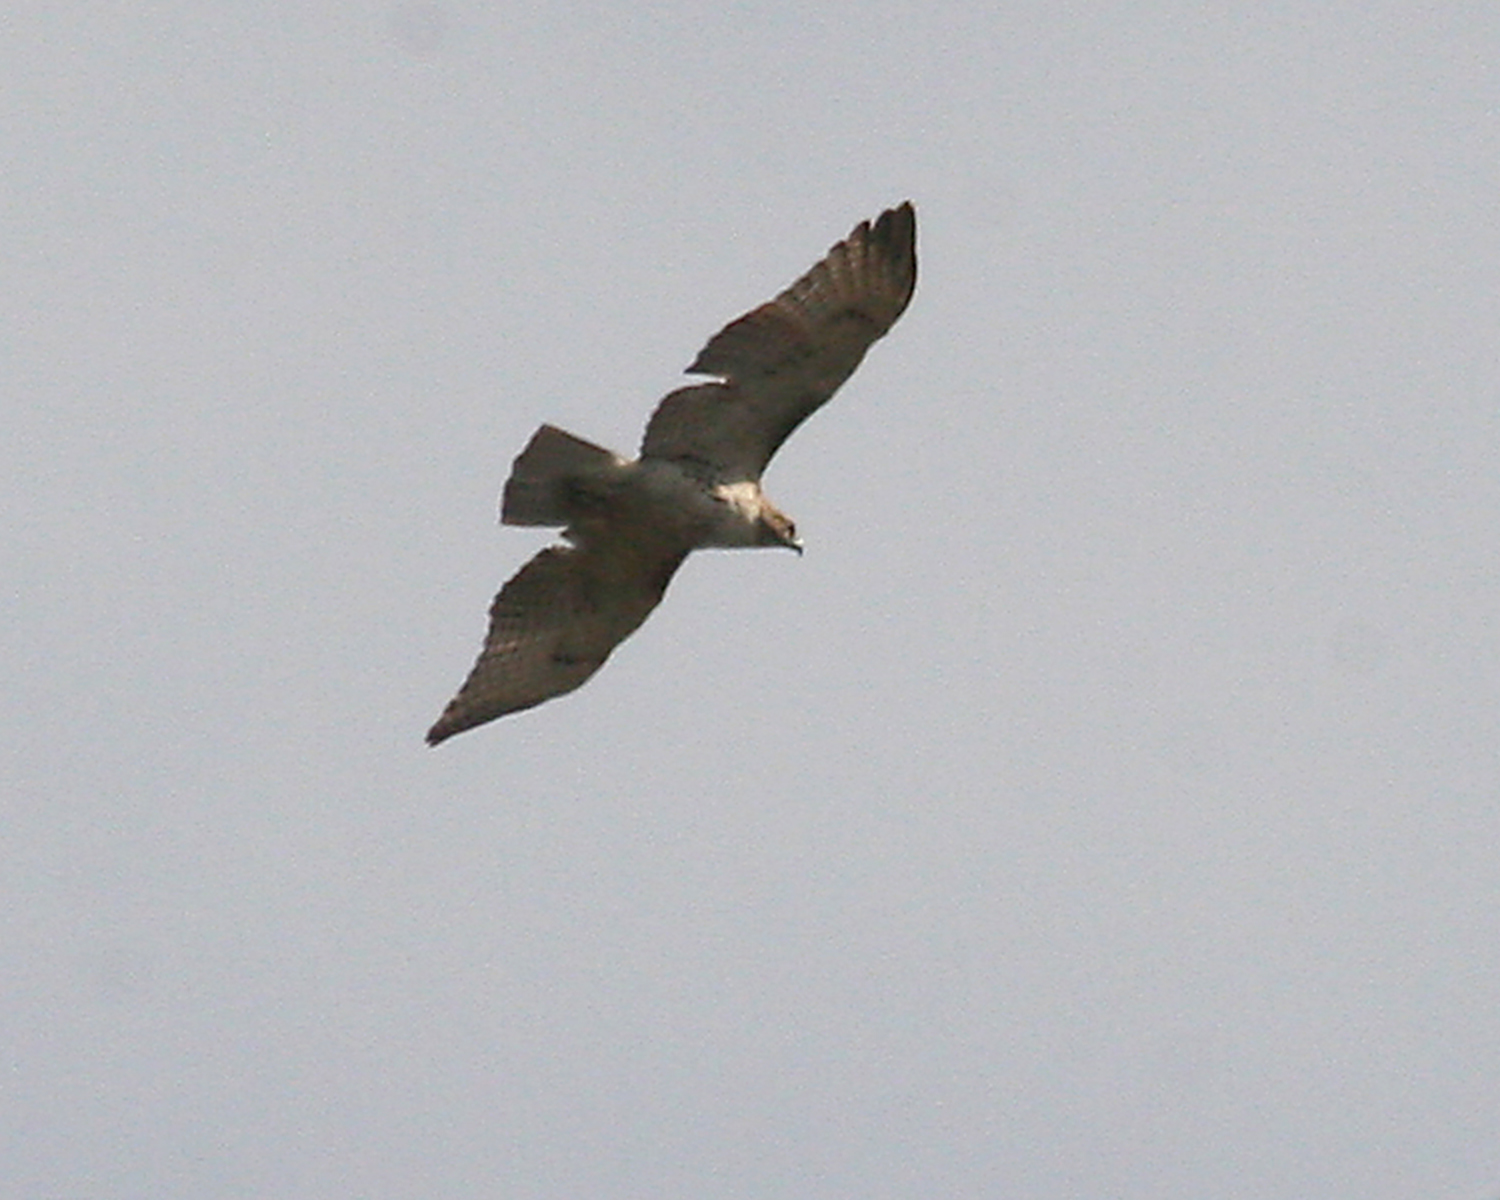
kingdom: Animalia
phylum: Chordata
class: Aves
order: Accipitriformes
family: Accipitridae
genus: Buteo
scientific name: Buteo jamaicensis
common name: Red-tailed hawk
